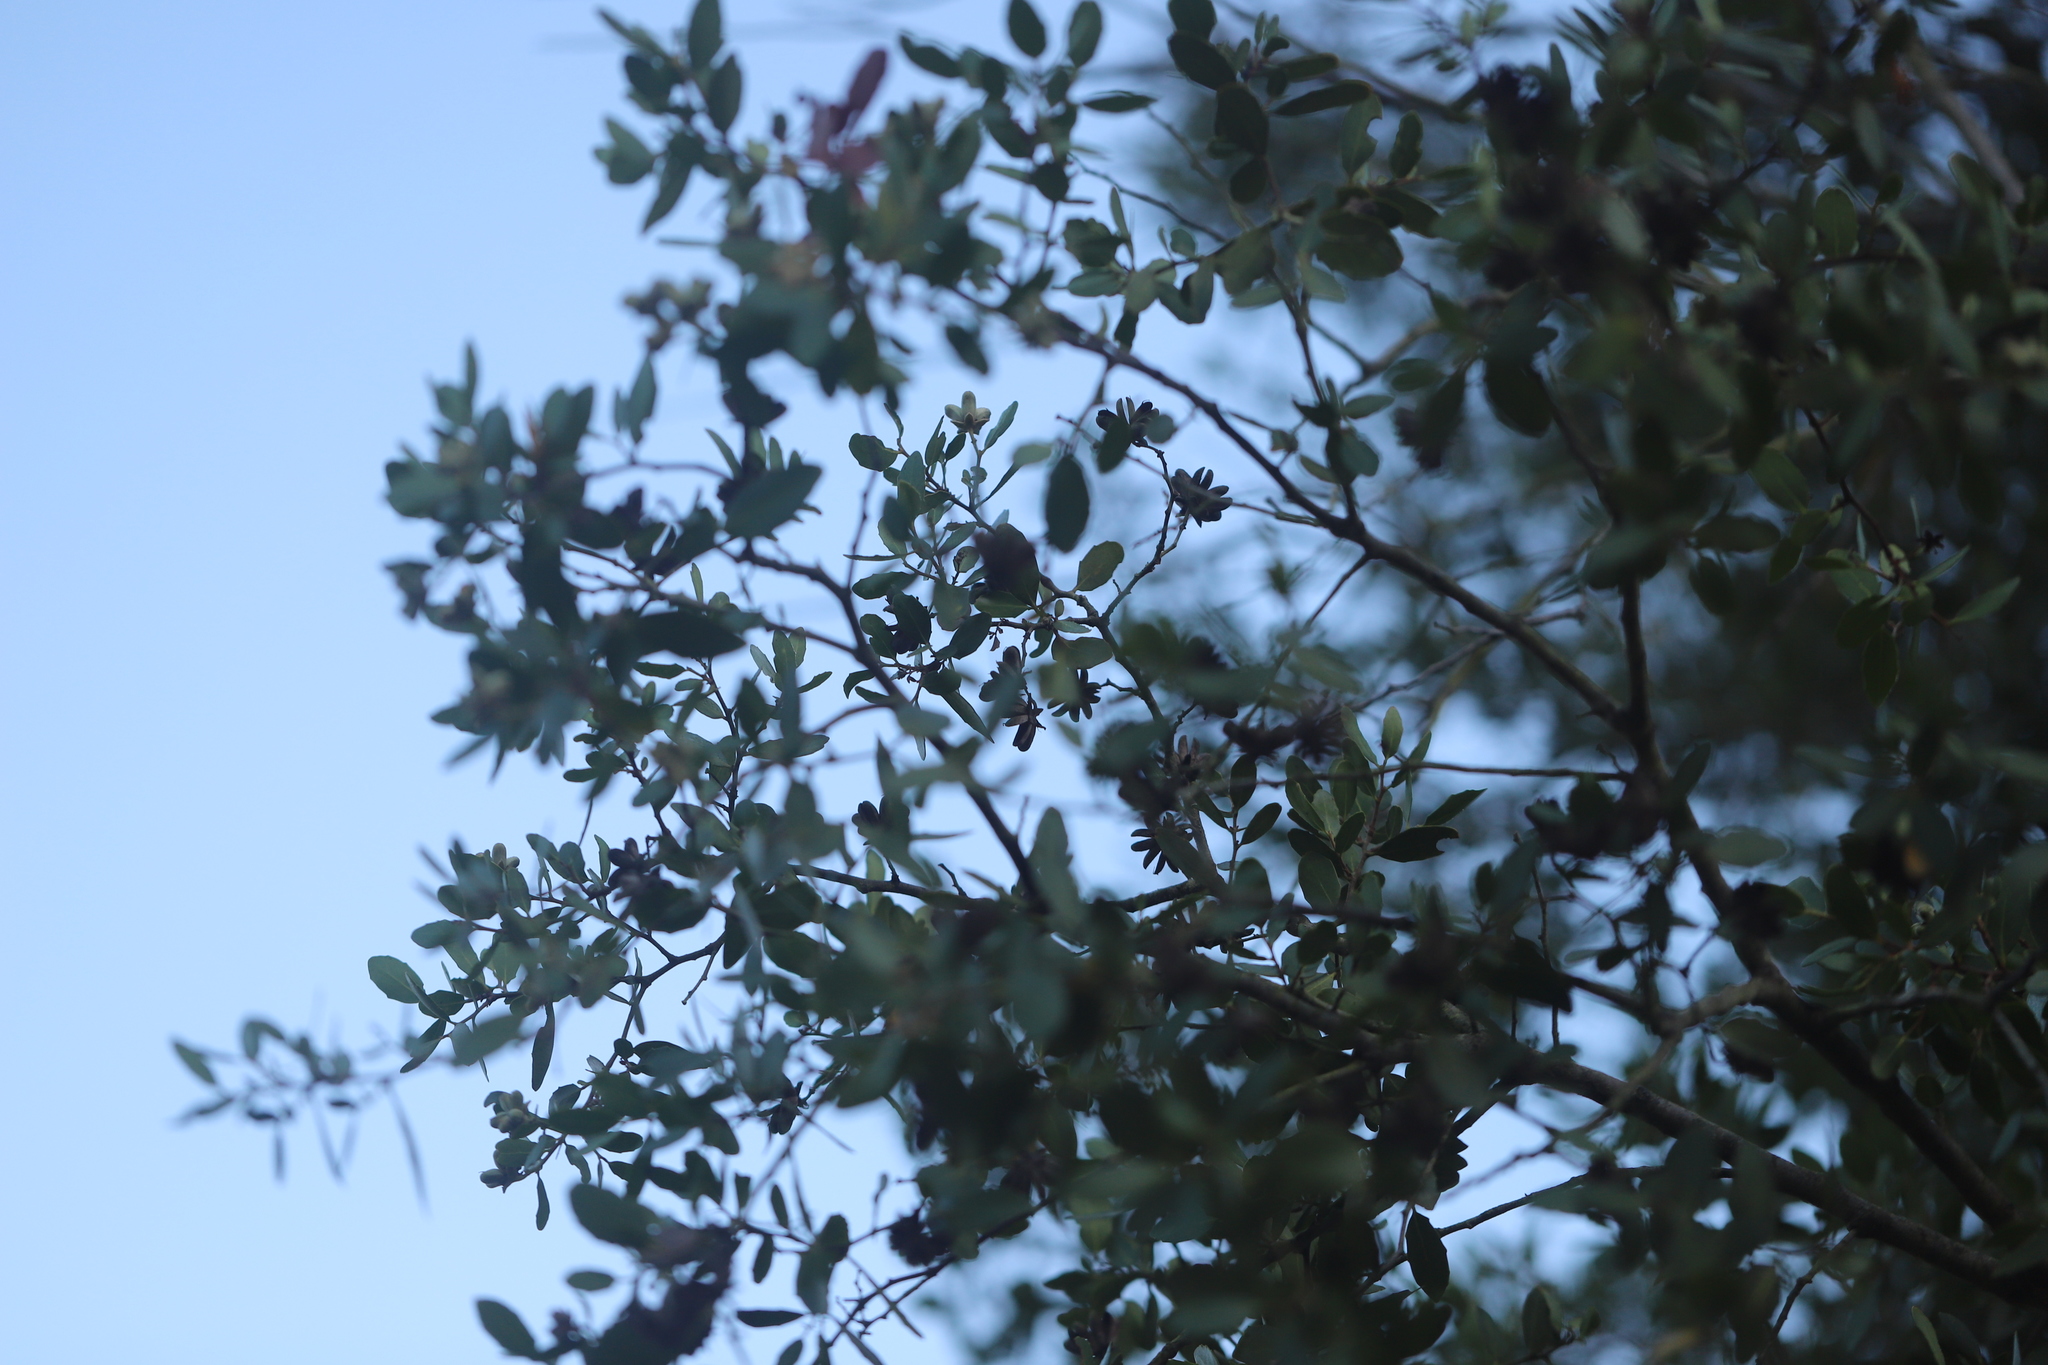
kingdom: Plantae
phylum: Tracheophyta
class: Magnoliopsida
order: Fabales
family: Quillajaceae
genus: Quillaja
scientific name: Quillaja saponaria
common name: Murillo's-bark
